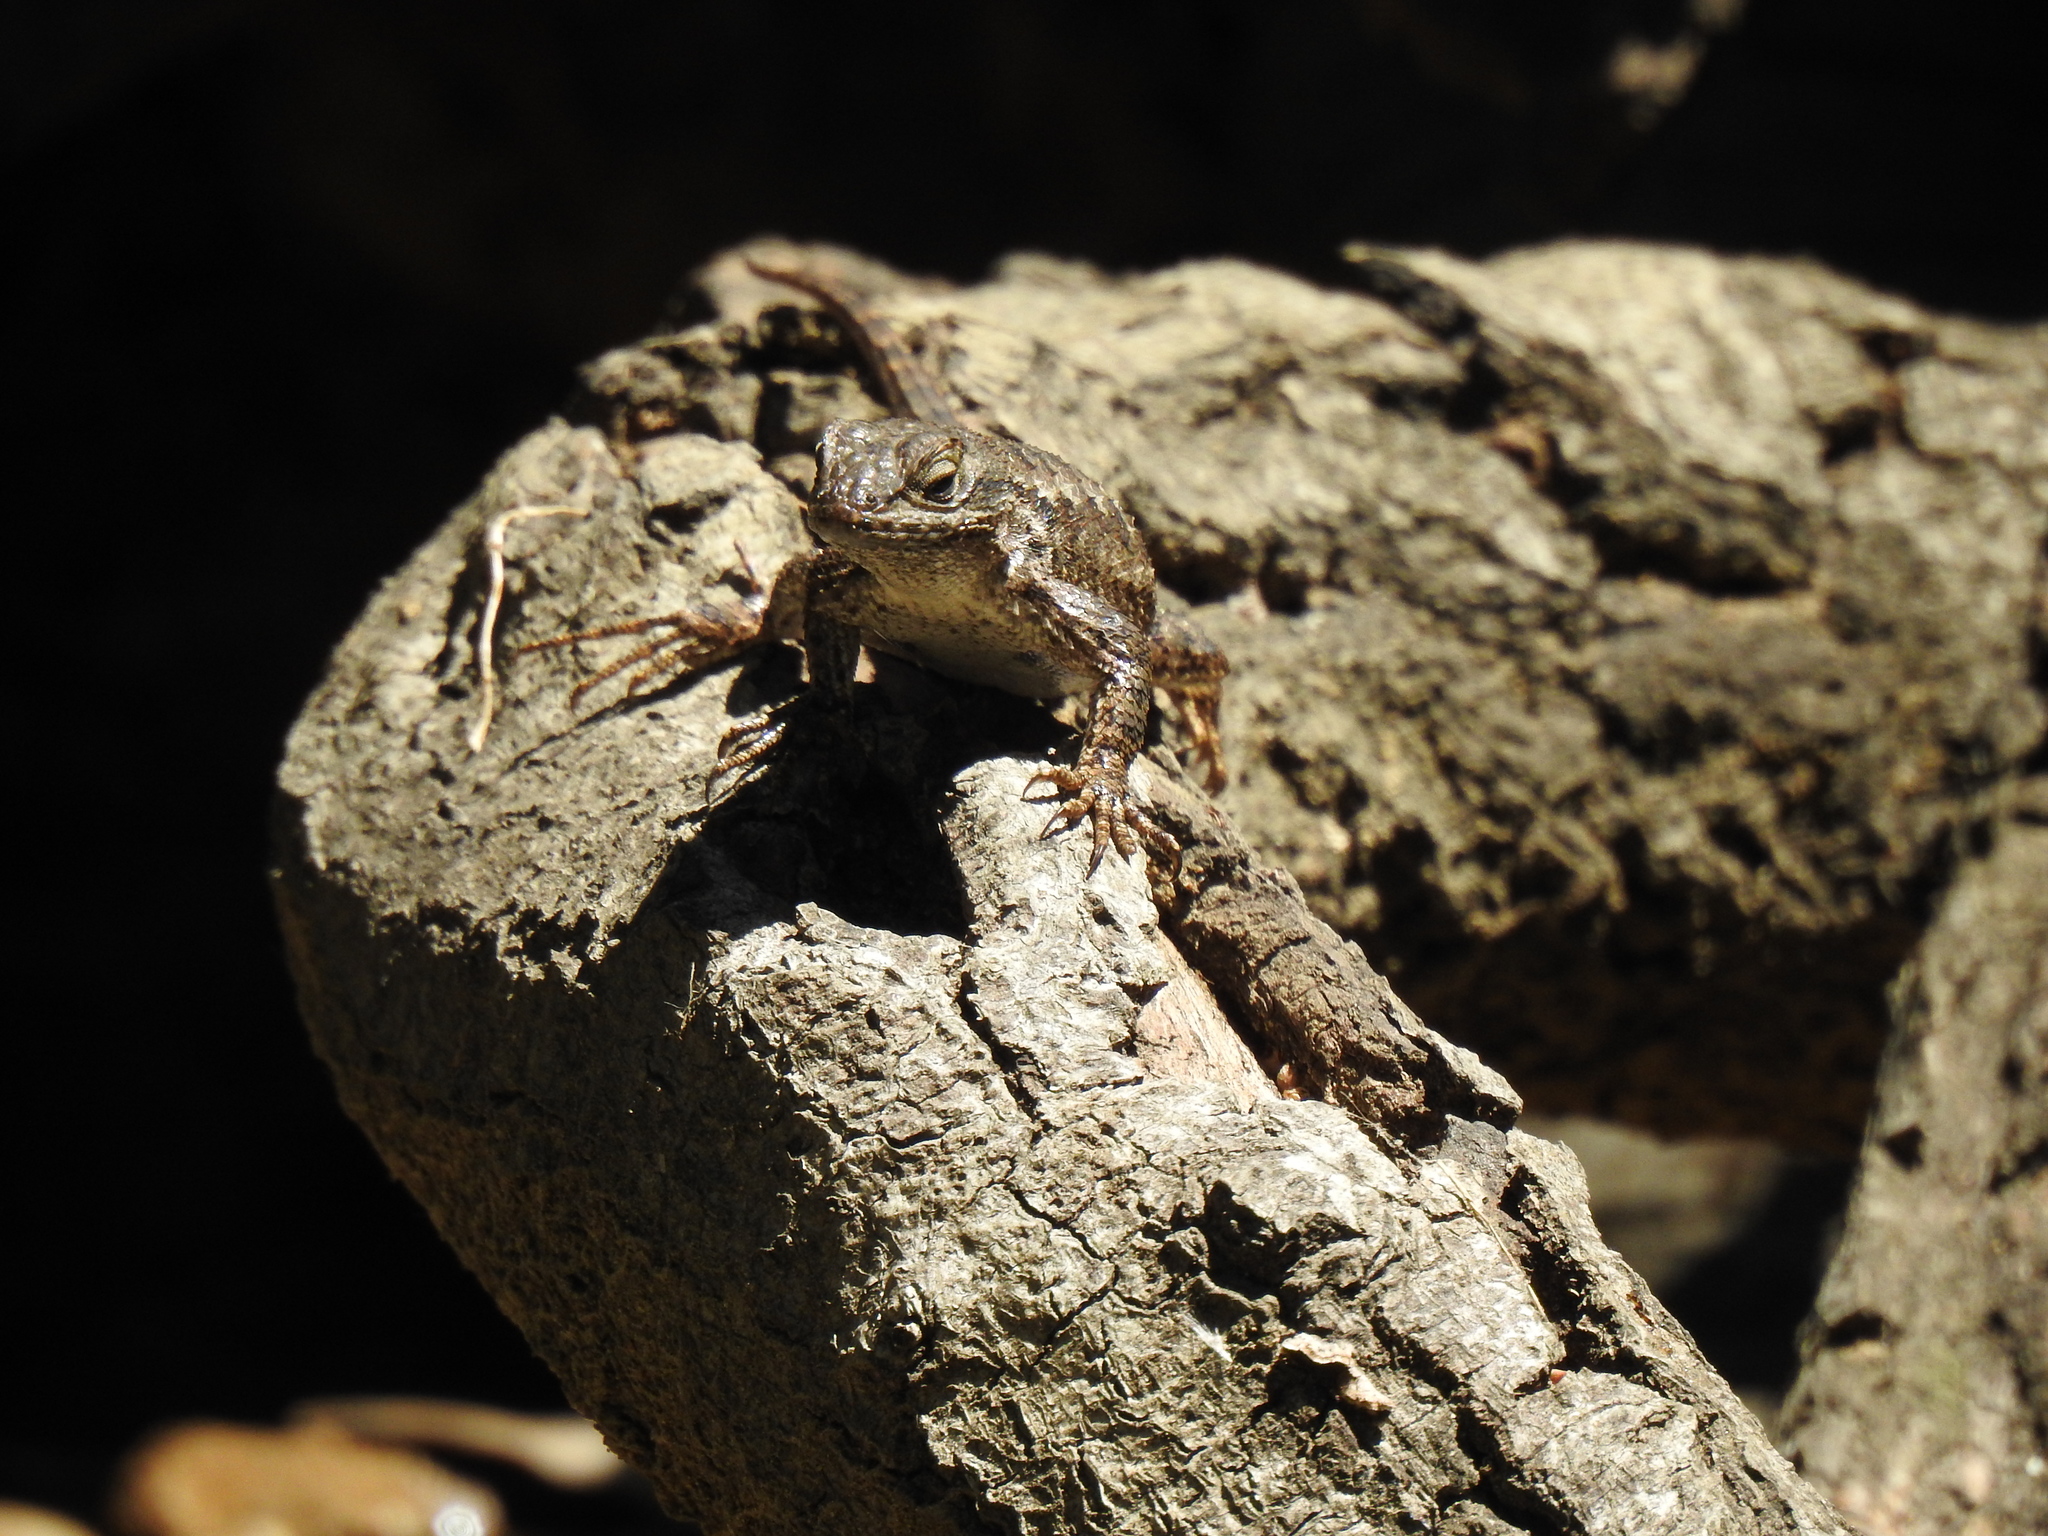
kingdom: Animalia
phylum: Chordata
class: Squamata
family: Phrynosomatidae
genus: Sceloporus
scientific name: Sceloporus occidentalis
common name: Western fence lizard
